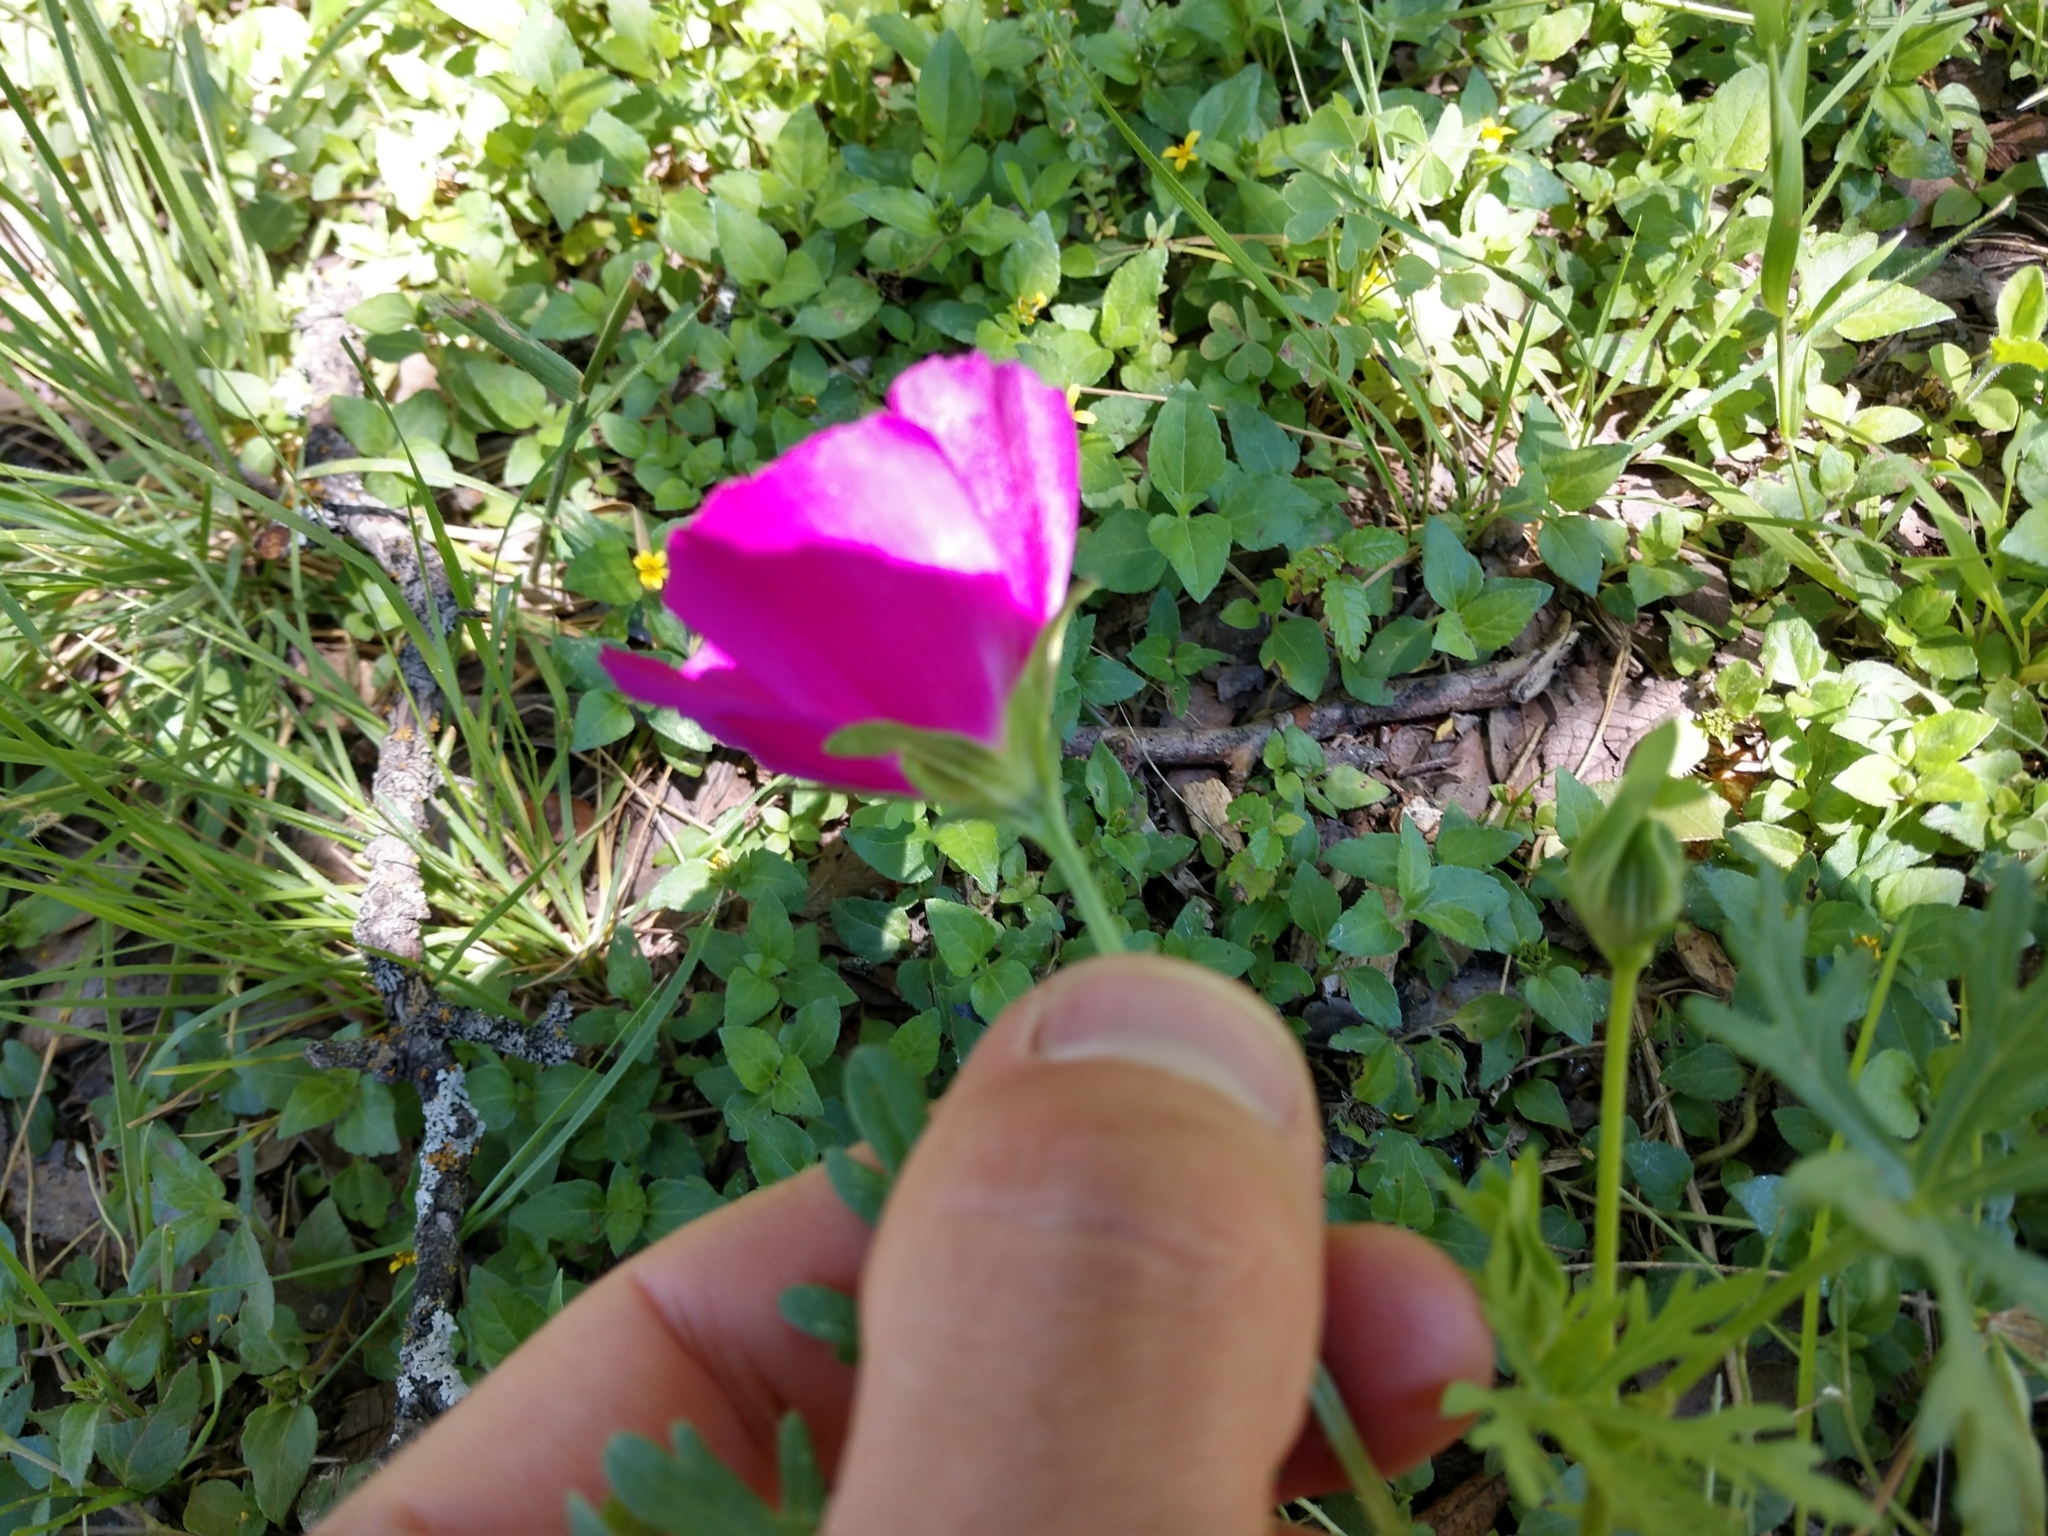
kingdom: Plantae
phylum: Tracheophyta
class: Magnoliopsida
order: Malvales
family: Malvaceae
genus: Callirhoe
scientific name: Callirhoe involucrata
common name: Purple poppy-mallow
